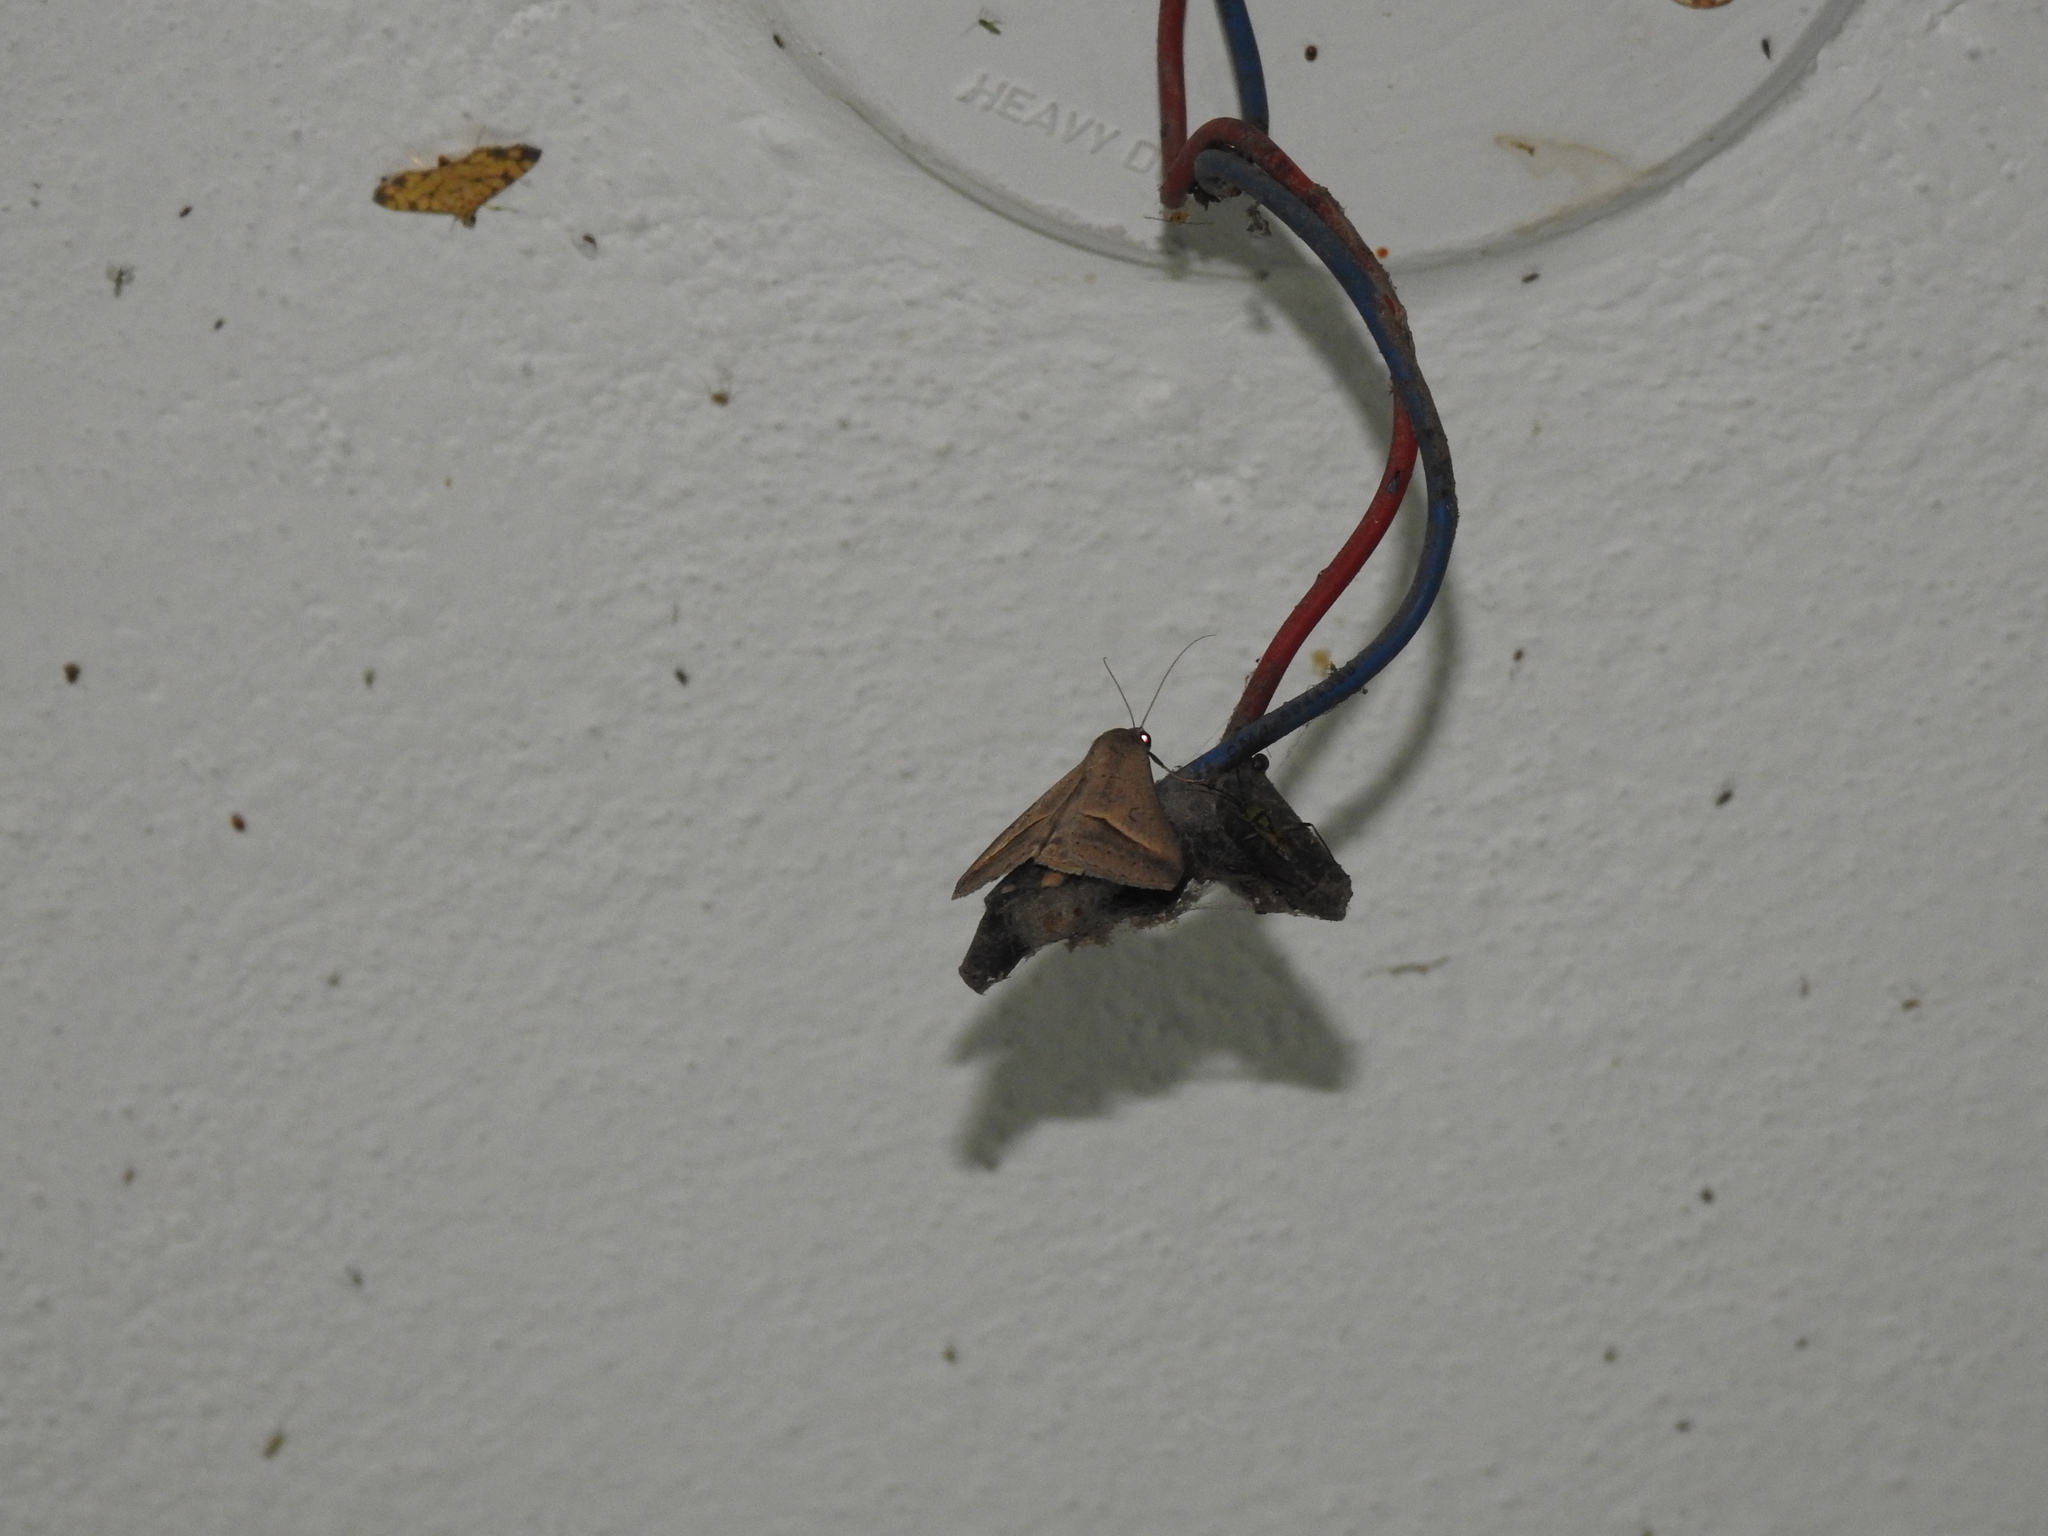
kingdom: Animalia
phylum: Arthropoda
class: Insecta
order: Lepidoptera
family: Erebidae
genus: Mocis
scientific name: Mocis frugalis
